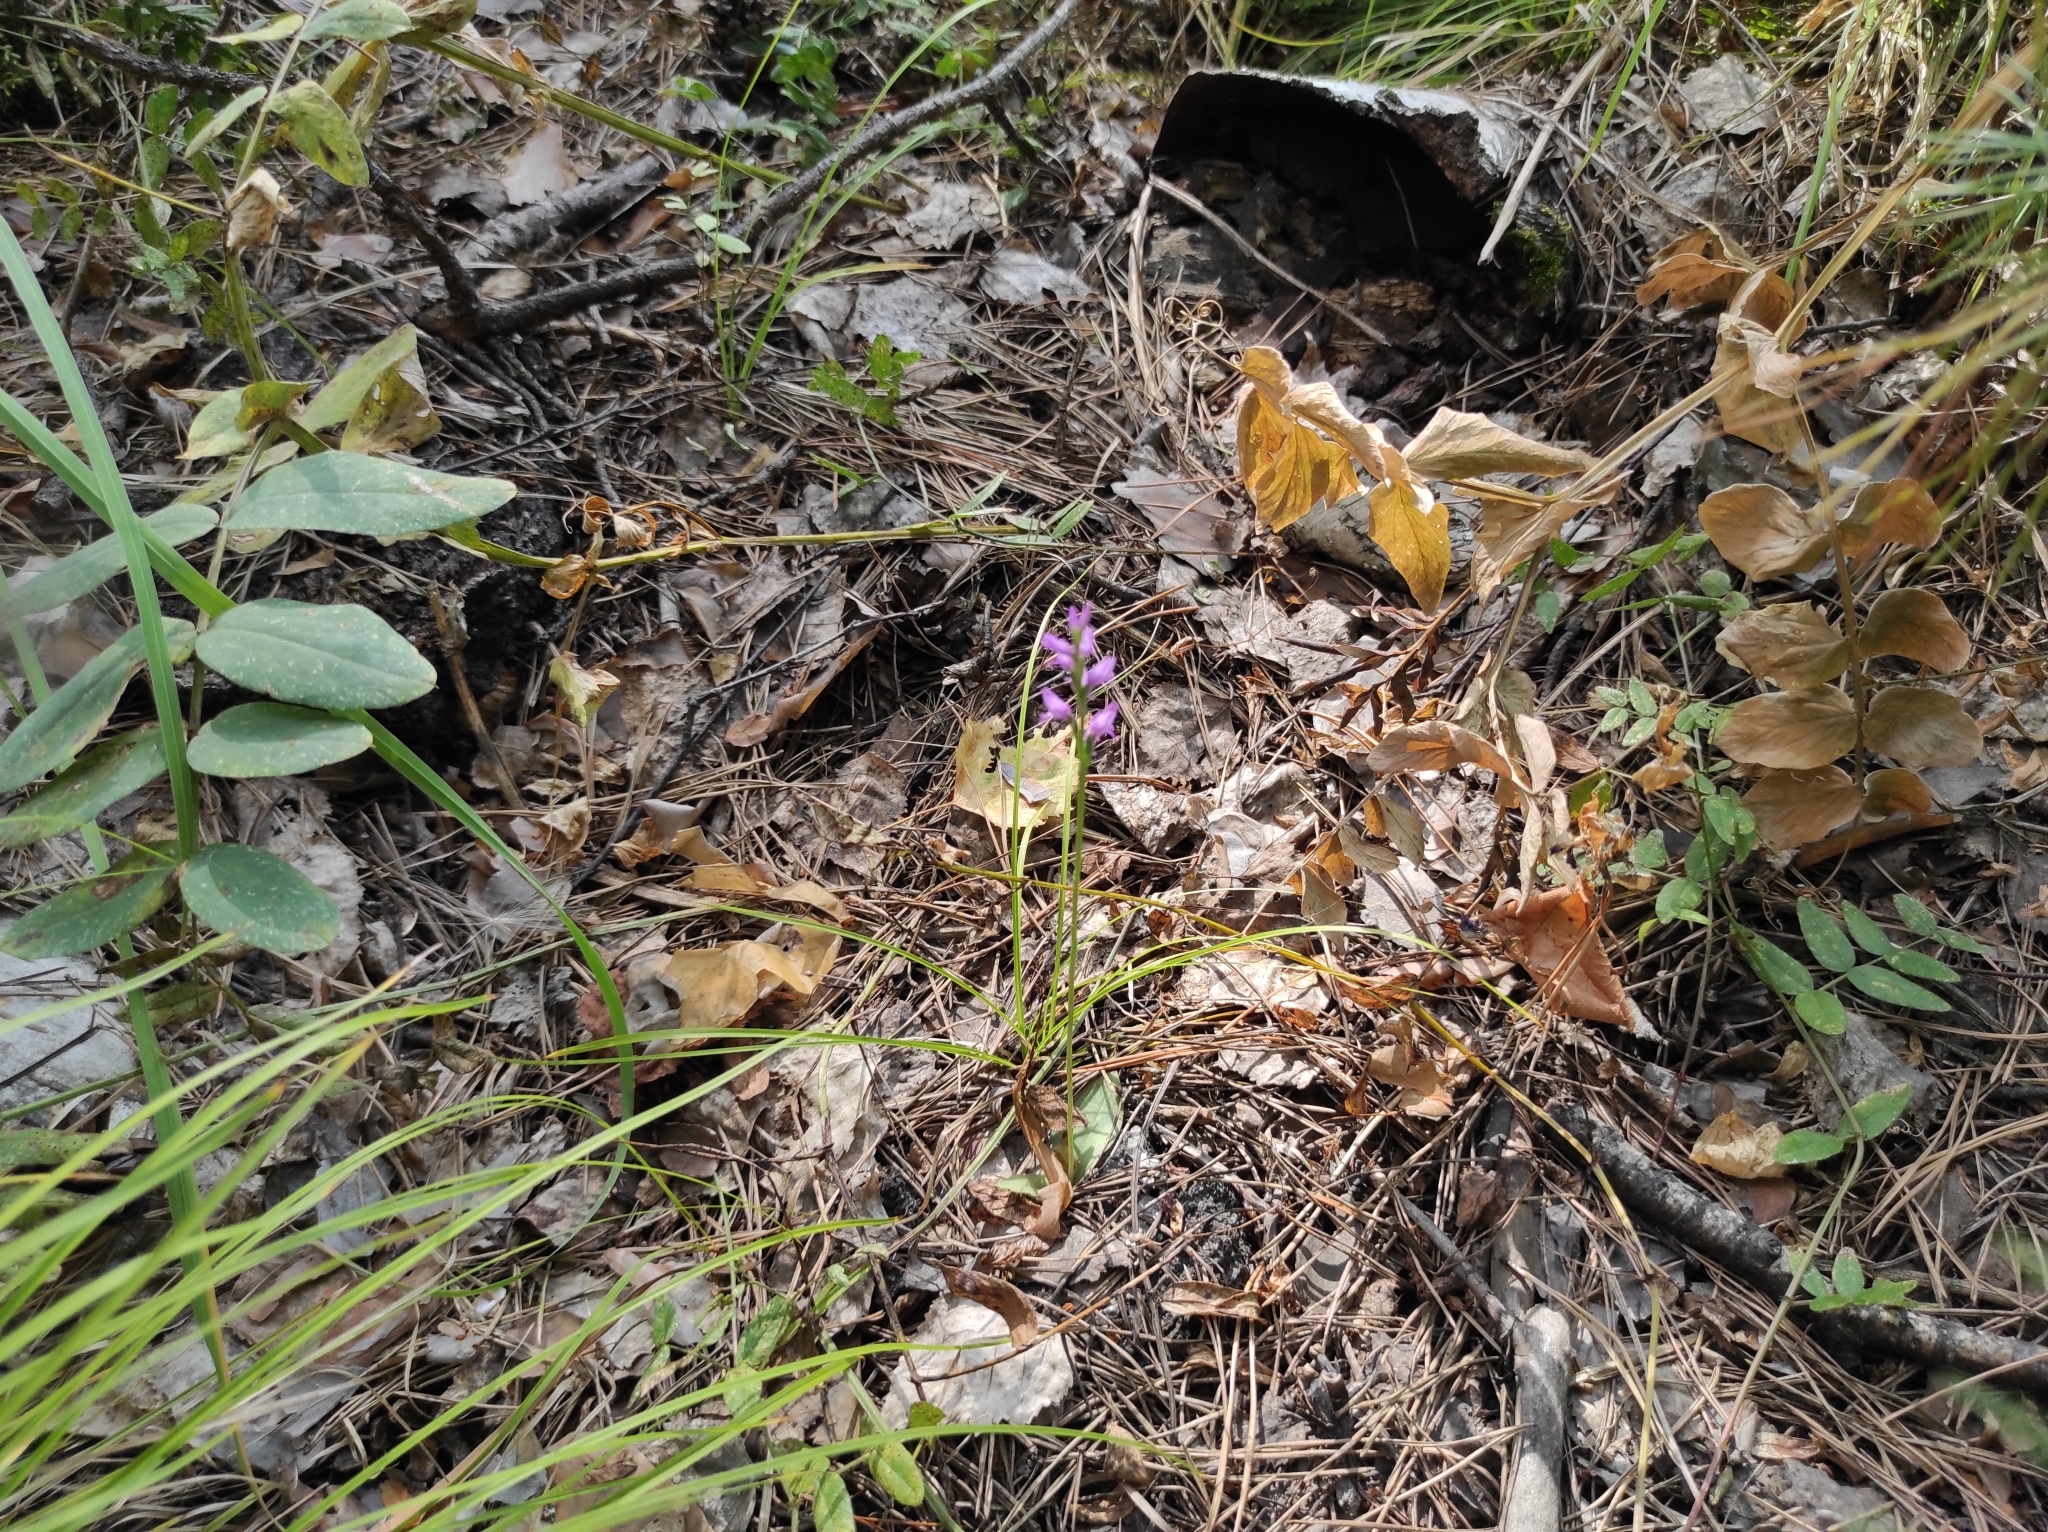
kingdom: Plantae
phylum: Tracheophyta
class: Liliopsida
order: Asparagales
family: Orchidaceae
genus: Hemipilia
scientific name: Hemipilia cucullata
